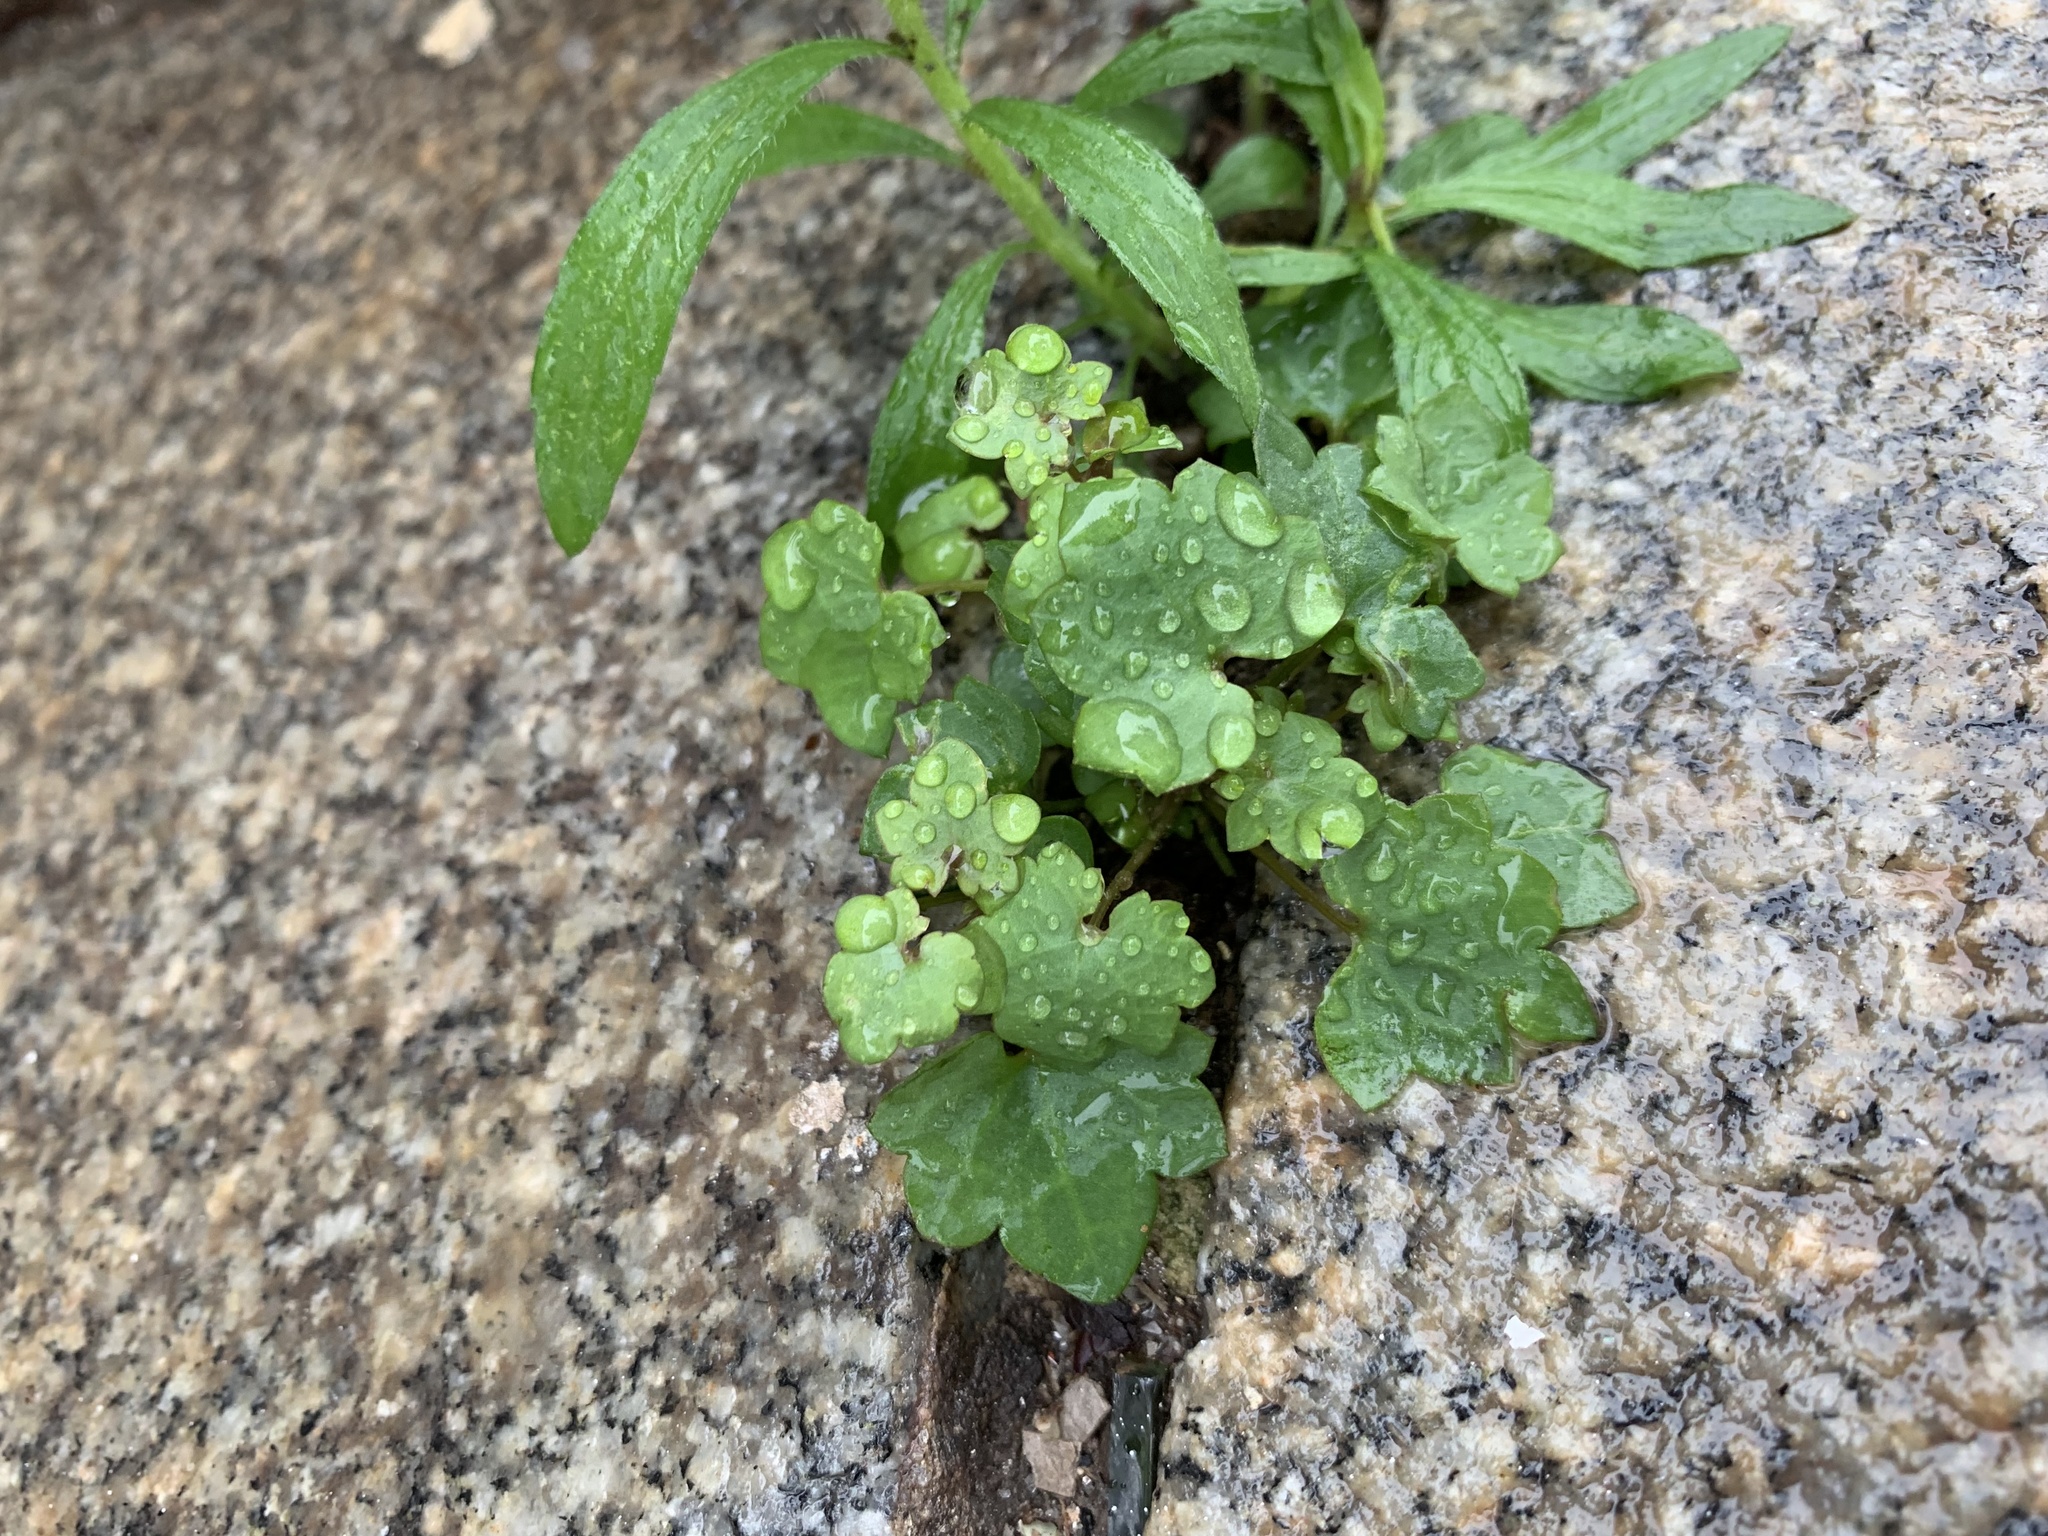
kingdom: Plantae
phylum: Tracheophyta
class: Magnoliopsida
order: Lamiales
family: Plantaginaceae
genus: Cymbalaria
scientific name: Cymbalaria muralis
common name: Ivy-leaved toadflax
